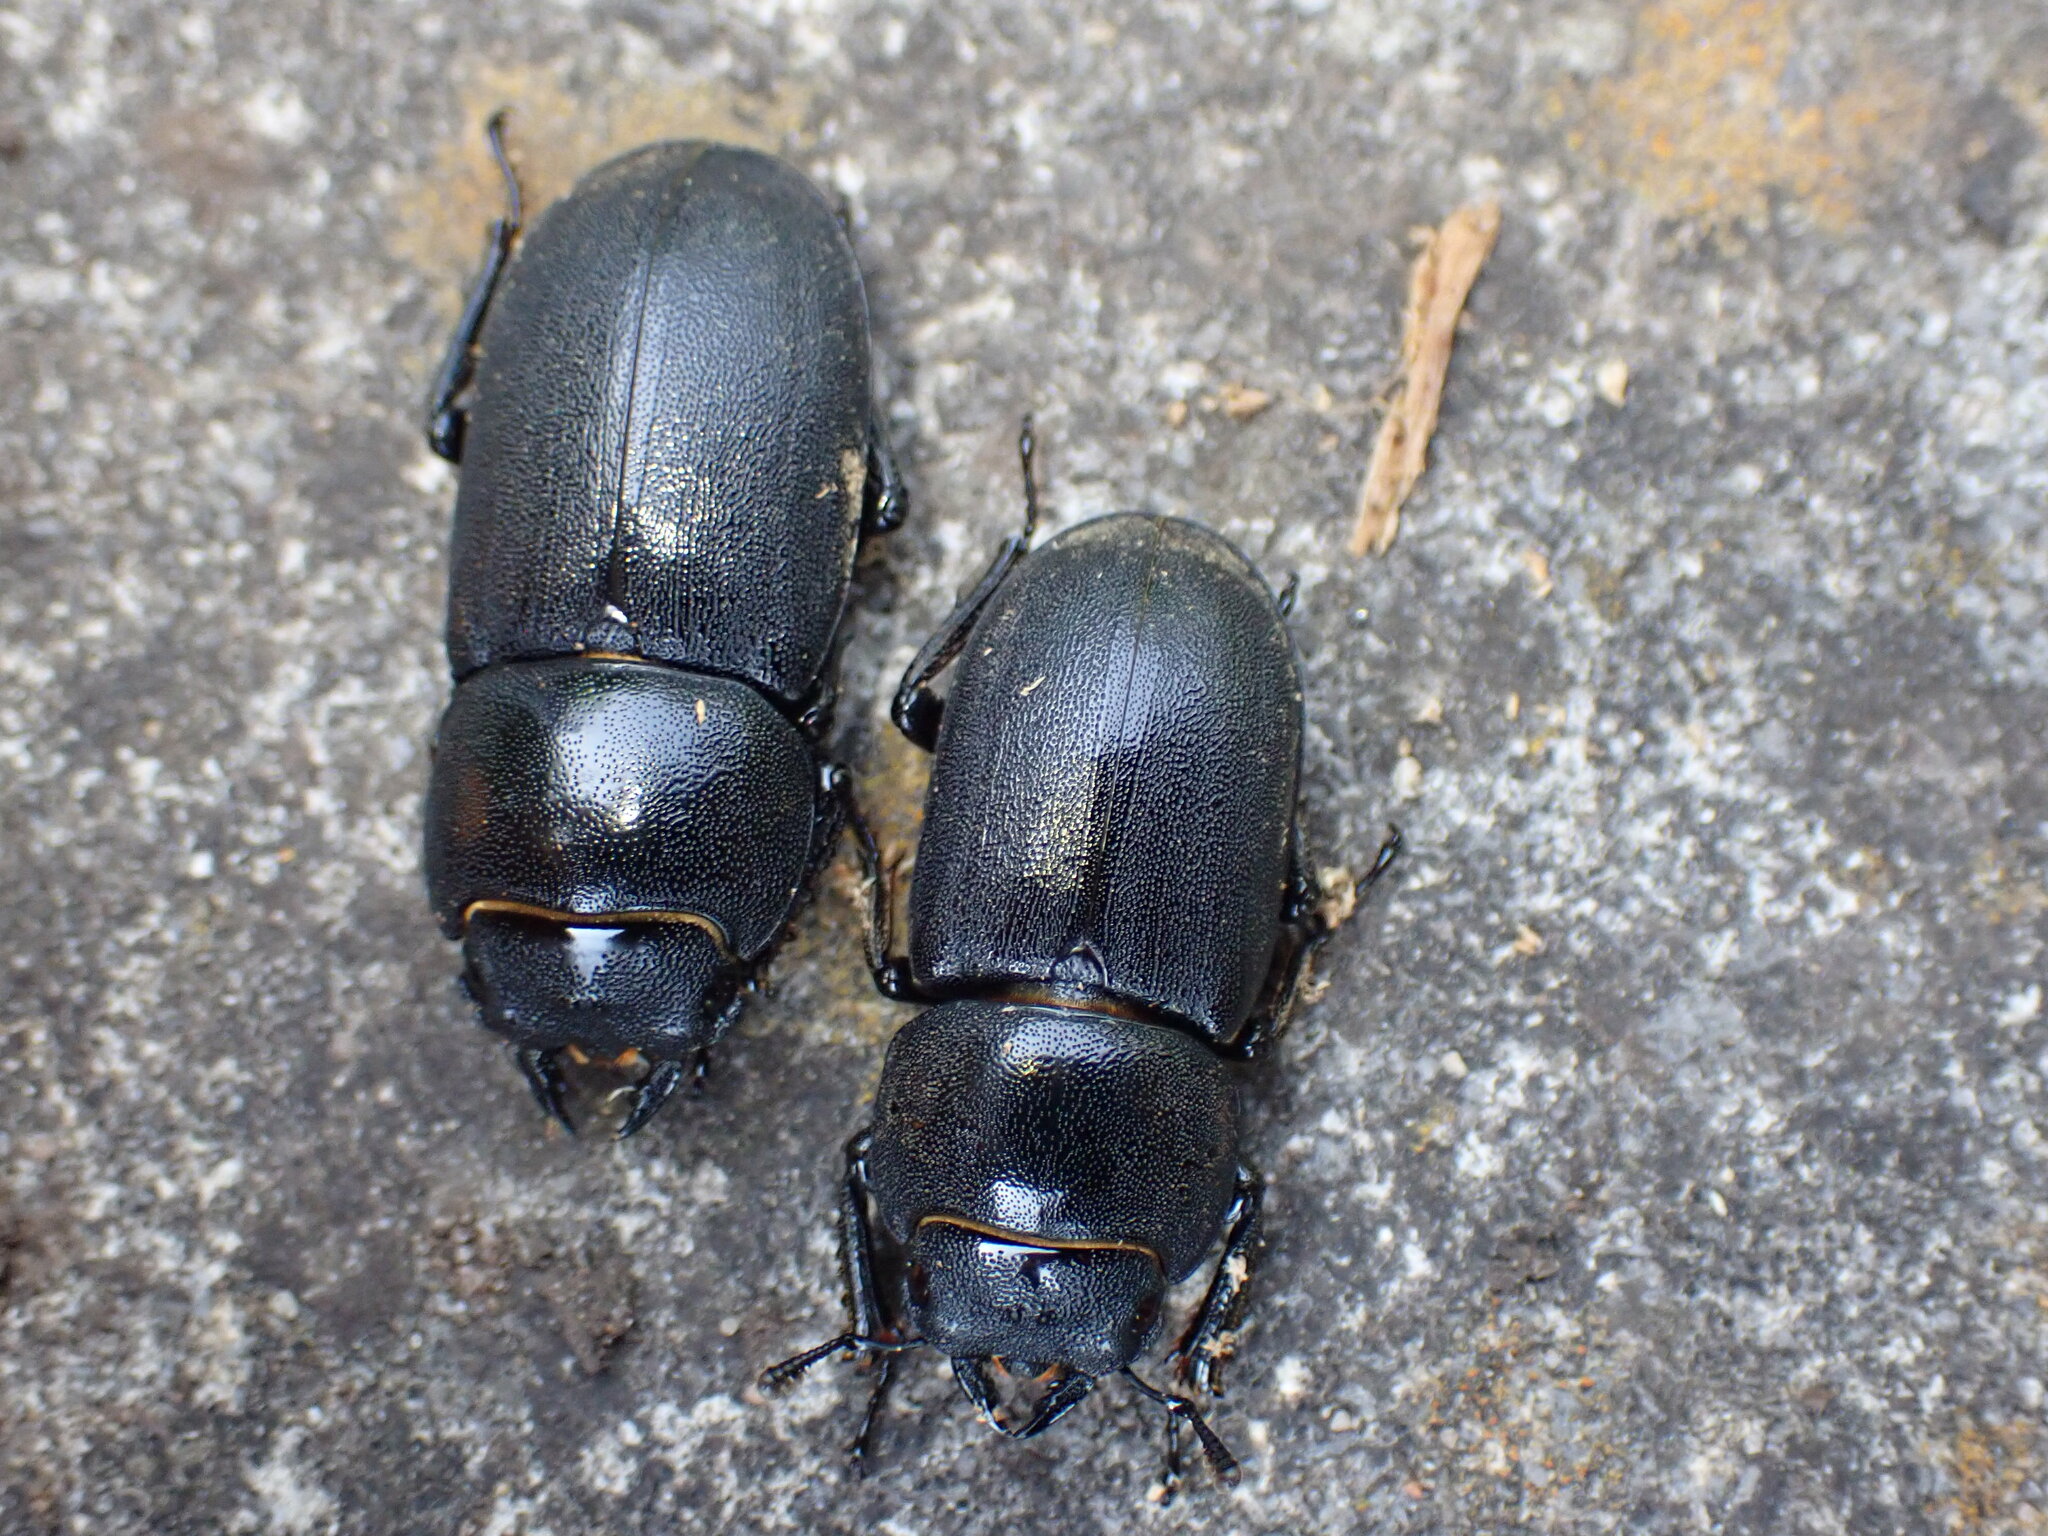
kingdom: Animalia
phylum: Arthropoda
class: Insecta
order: Coleoptera
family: Lucanidae
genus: Dorcus
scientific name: Dorcus parallelipipedus
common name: Lesser stag beetle
